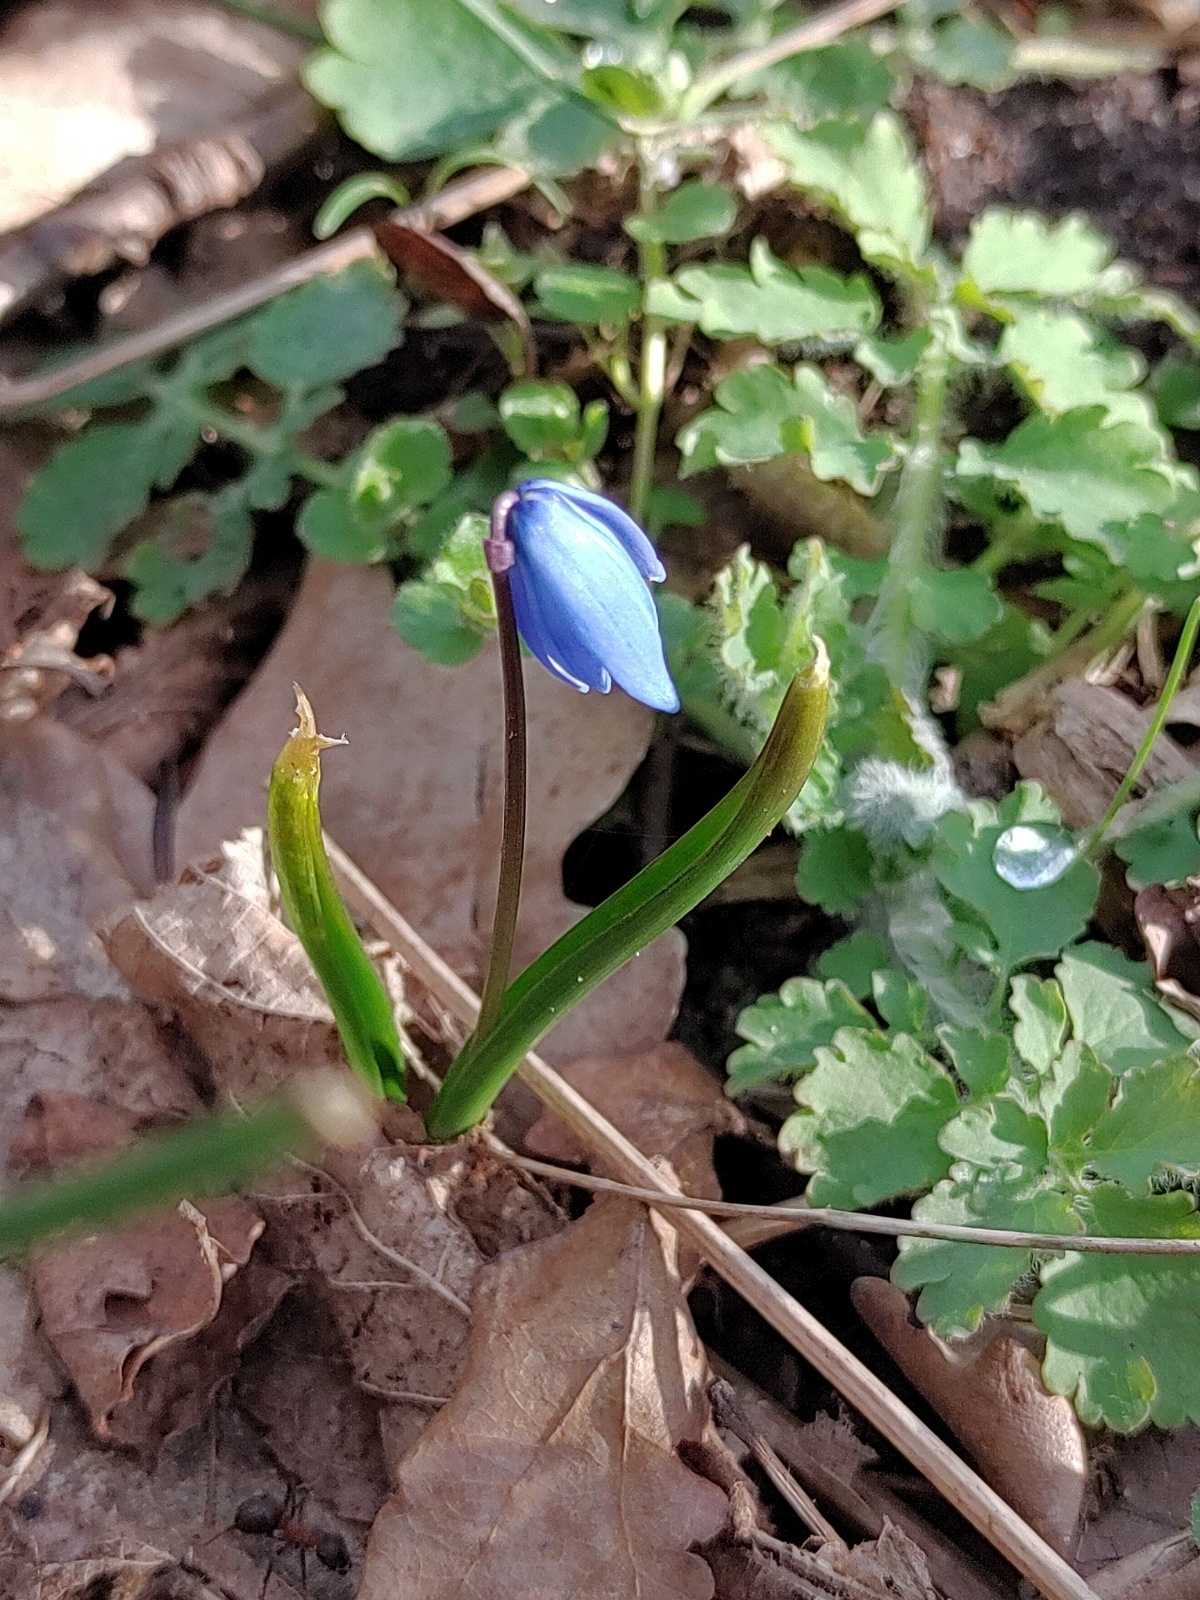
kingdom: Plantae
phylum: Tracheophyta
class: Liliopsida
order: Asparagales
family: Asparagaceae
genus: Scilla
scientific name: Scilla siberica
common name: Siberian squill
